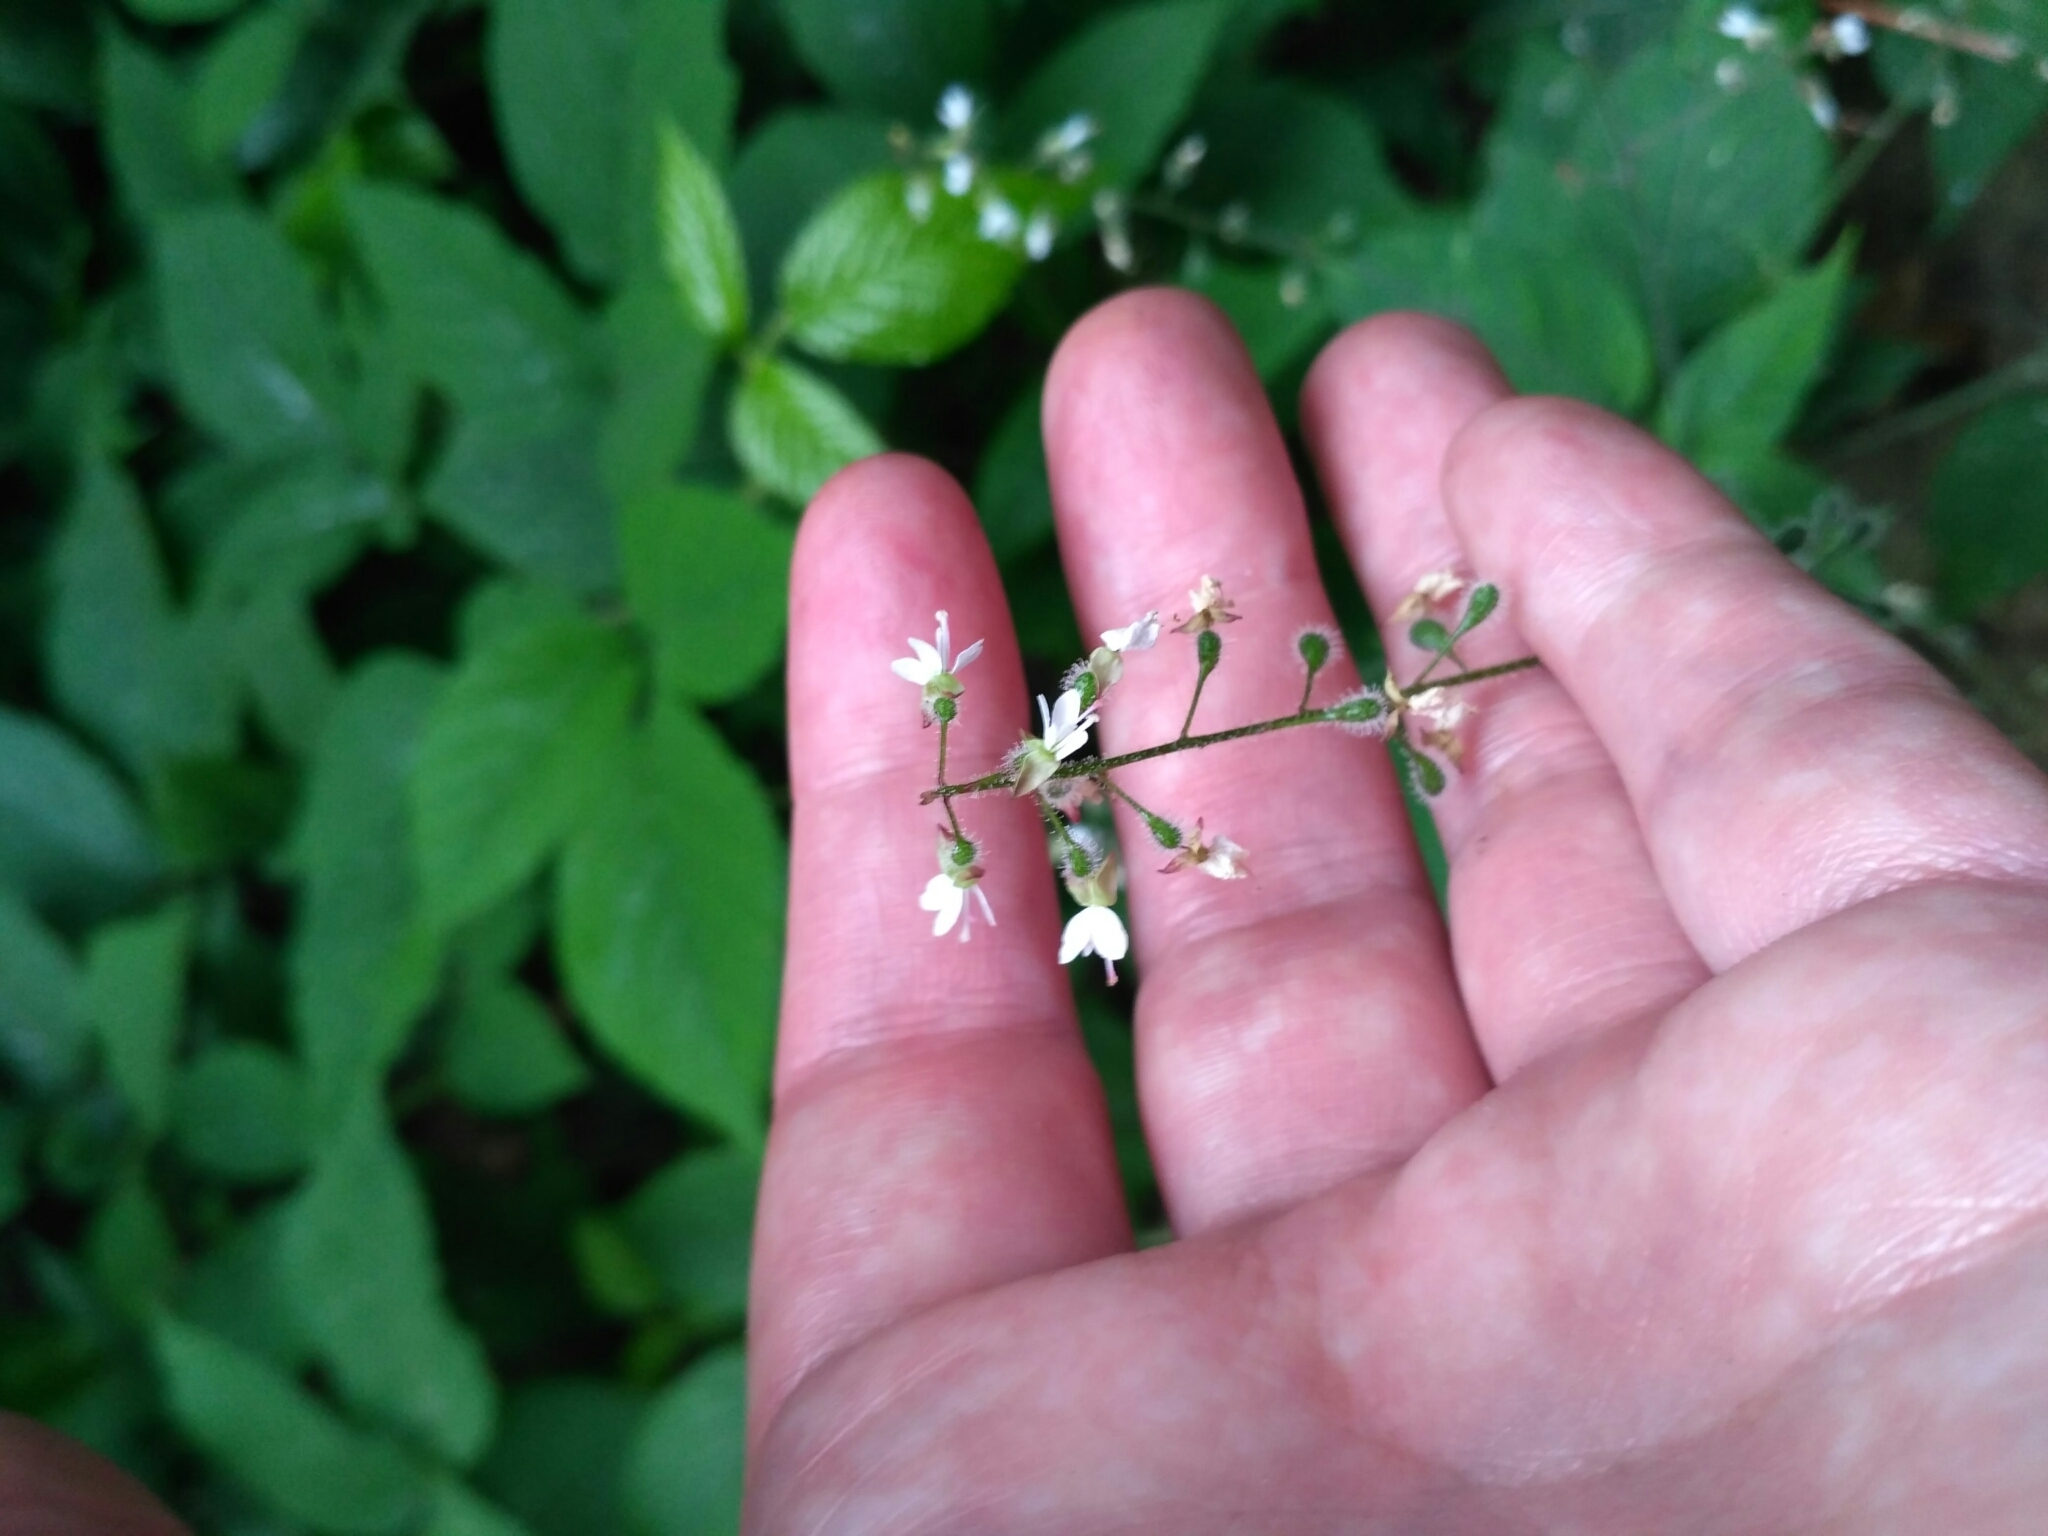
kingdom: Plantae
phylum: Tracheophyta
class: Magnoliopsida
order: Myrtales
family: Onagraceae
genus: Circaea
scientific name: Circaea lutetiana
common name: Enchanter's-nightshade
